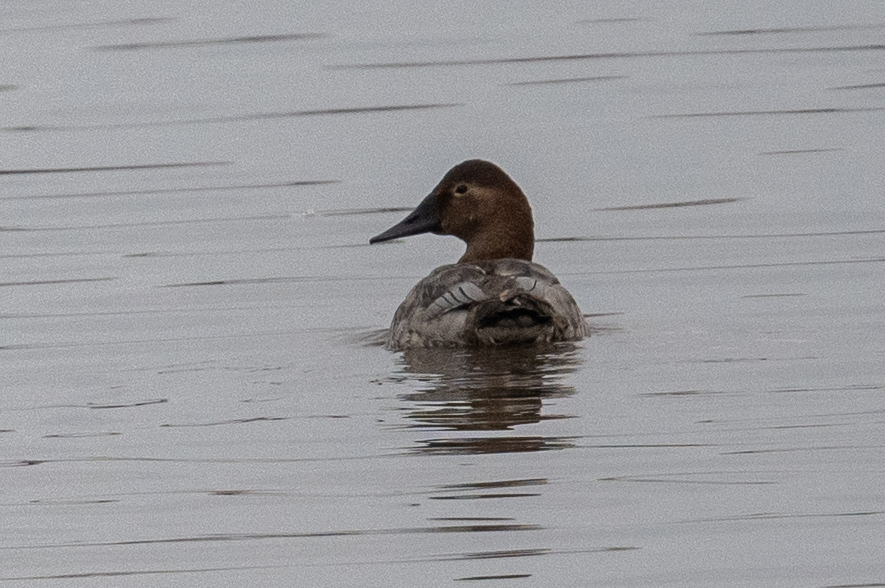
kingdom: Animalia
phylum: Chordata
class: Aves
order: Anseriformes
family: Anatidae
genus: Aythya
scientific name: Aythya valisineria
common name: Canvasback
